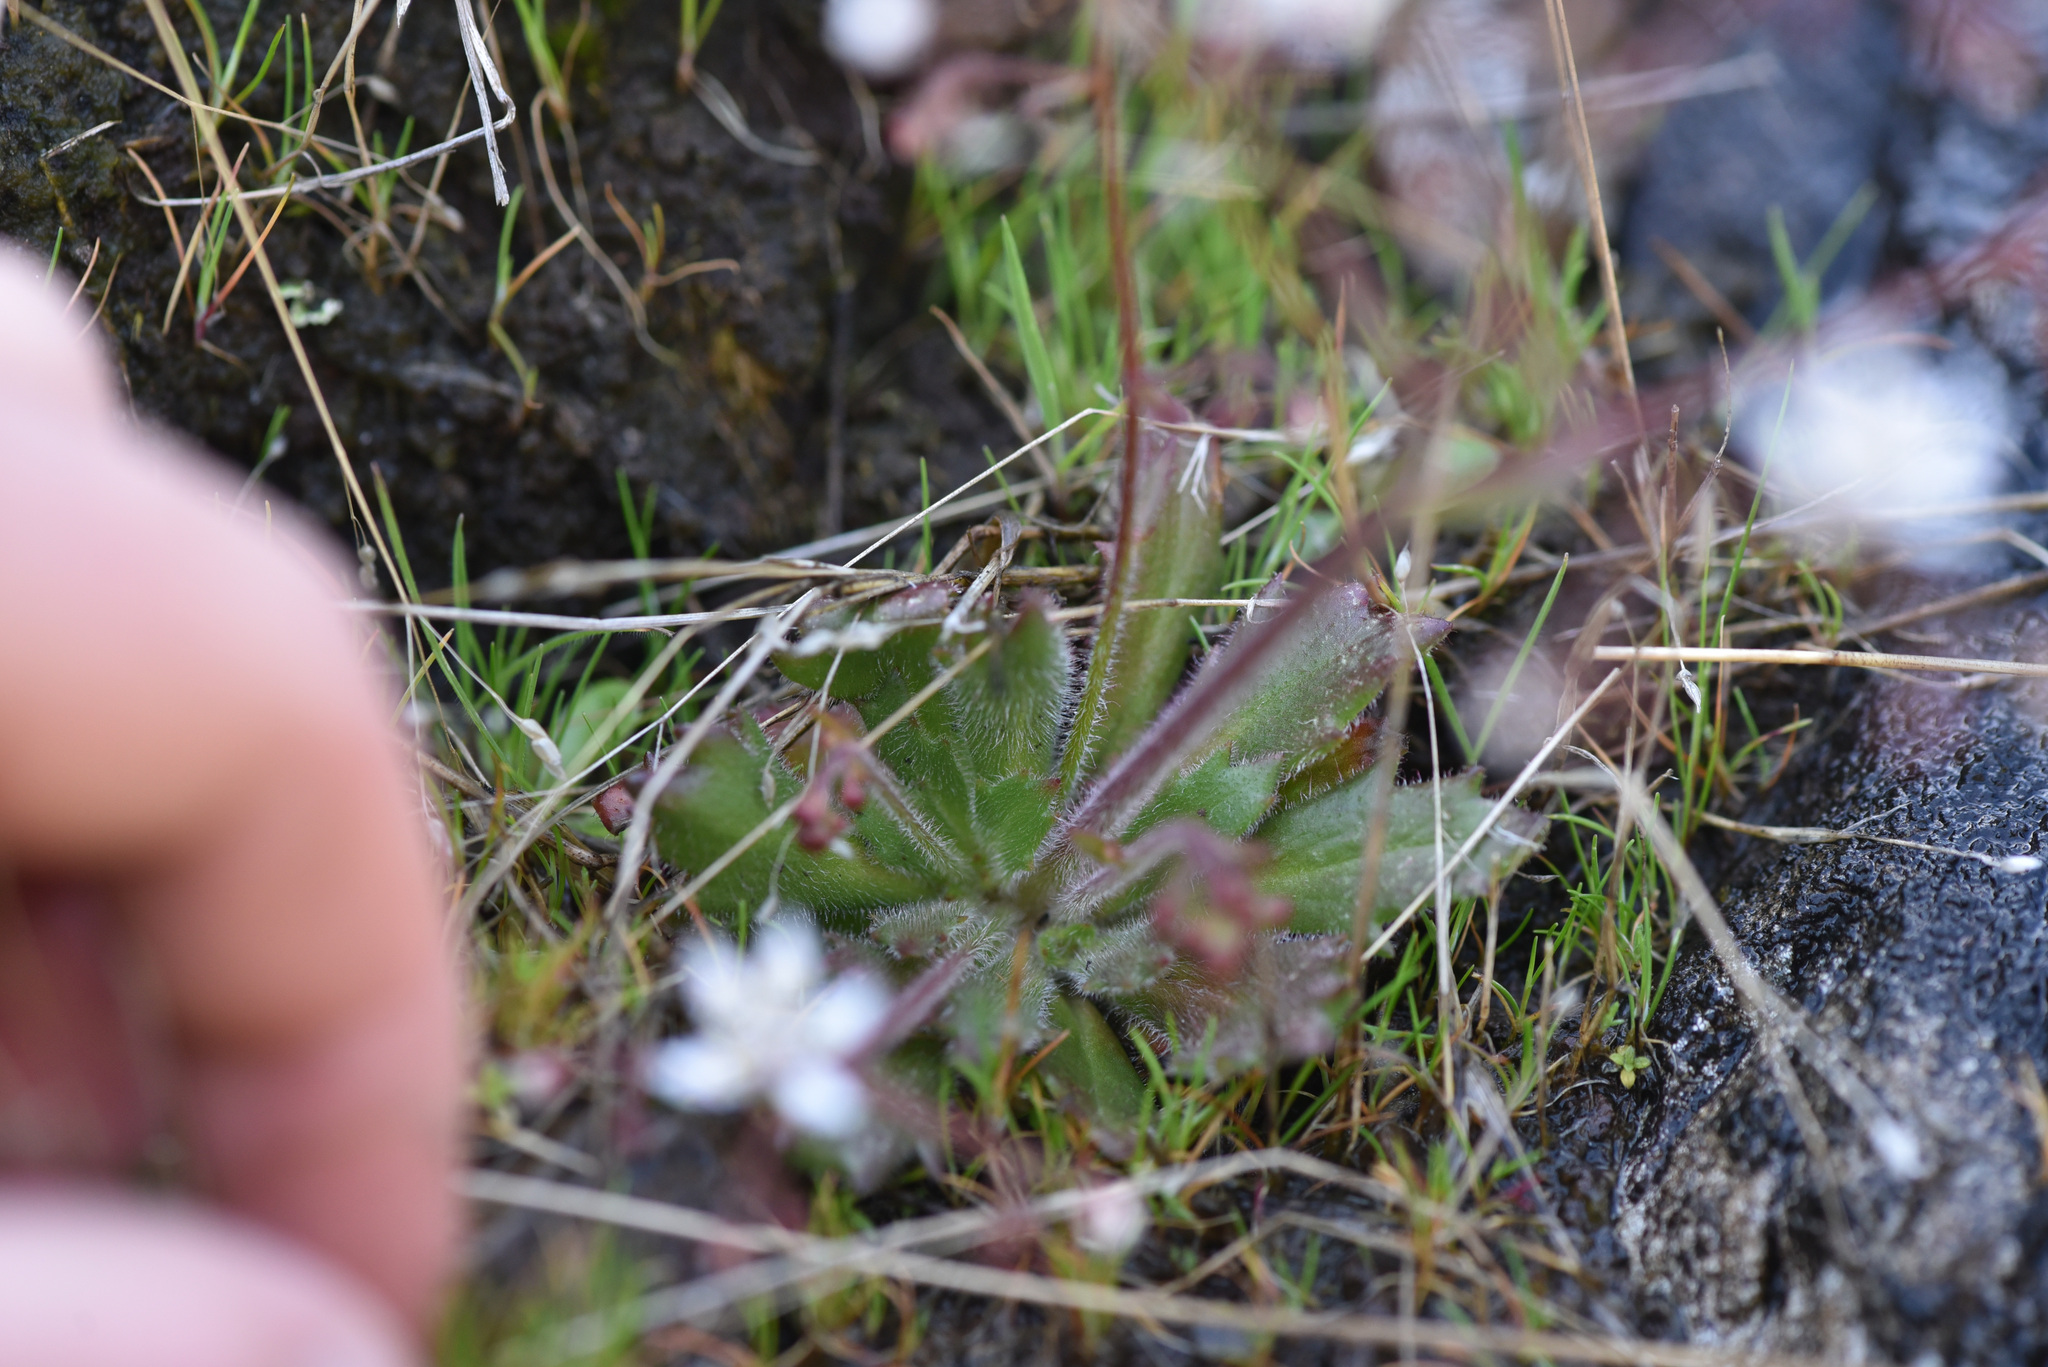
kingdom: Plantae
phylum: Tracheophyta
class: Magnoliopsida
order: Saxifragales
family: Saxifragaceae
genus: Micranthes
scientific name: Micranthes ferruginea
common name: Rusty saxifrage
